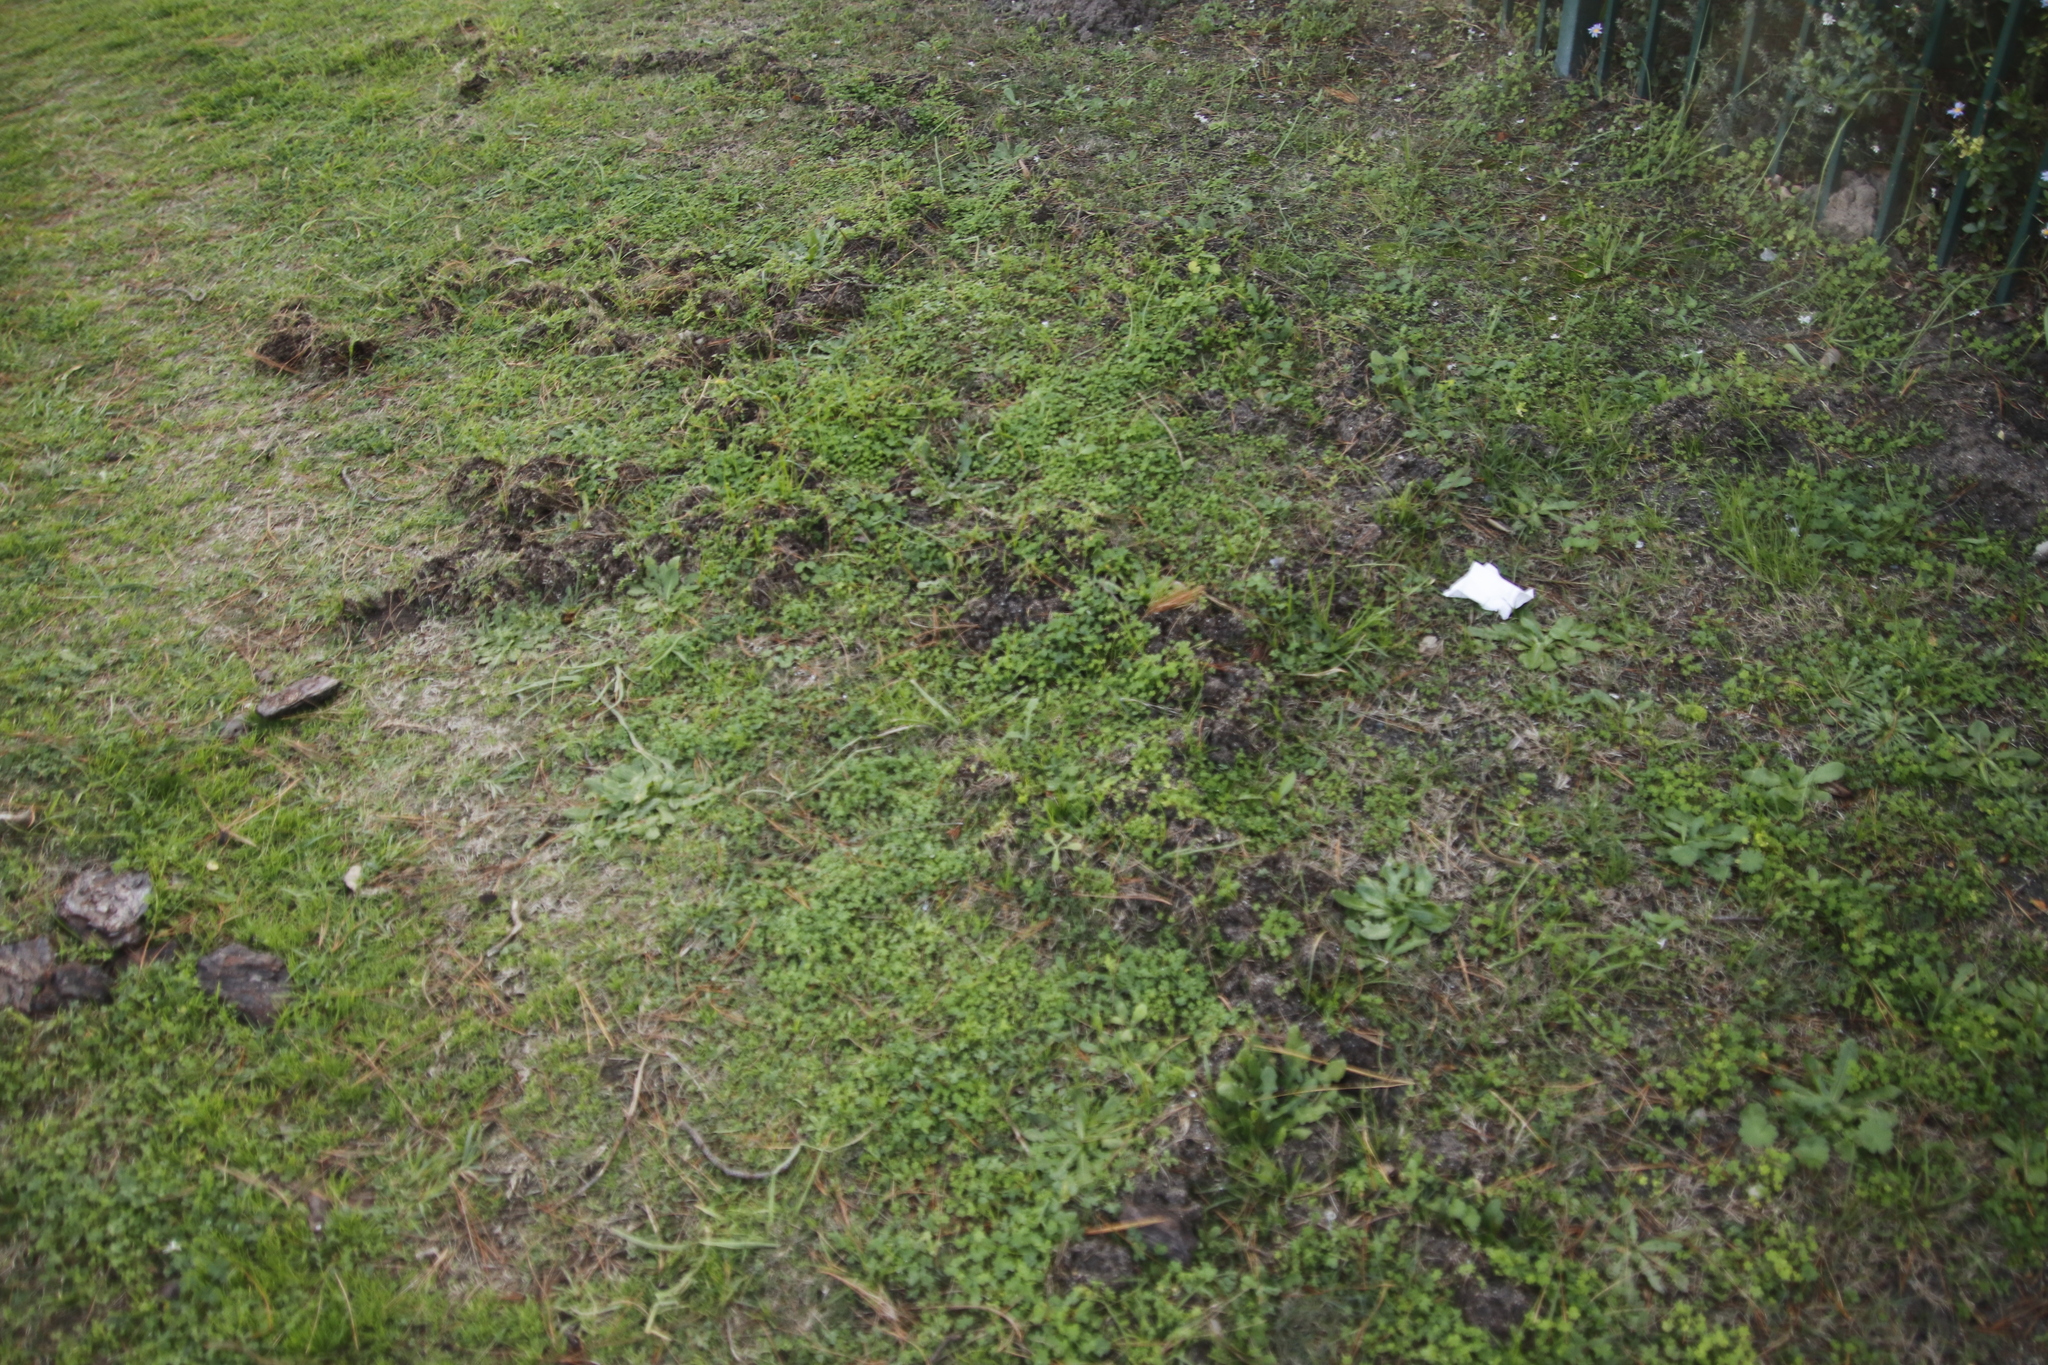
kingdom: Animalia
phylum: Chordata
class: Mammalia
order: Afrosoricida
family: Chrysochloridae
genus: Chrysochloris
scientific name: Chrysochloris asiatica
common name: Cape golden mole
